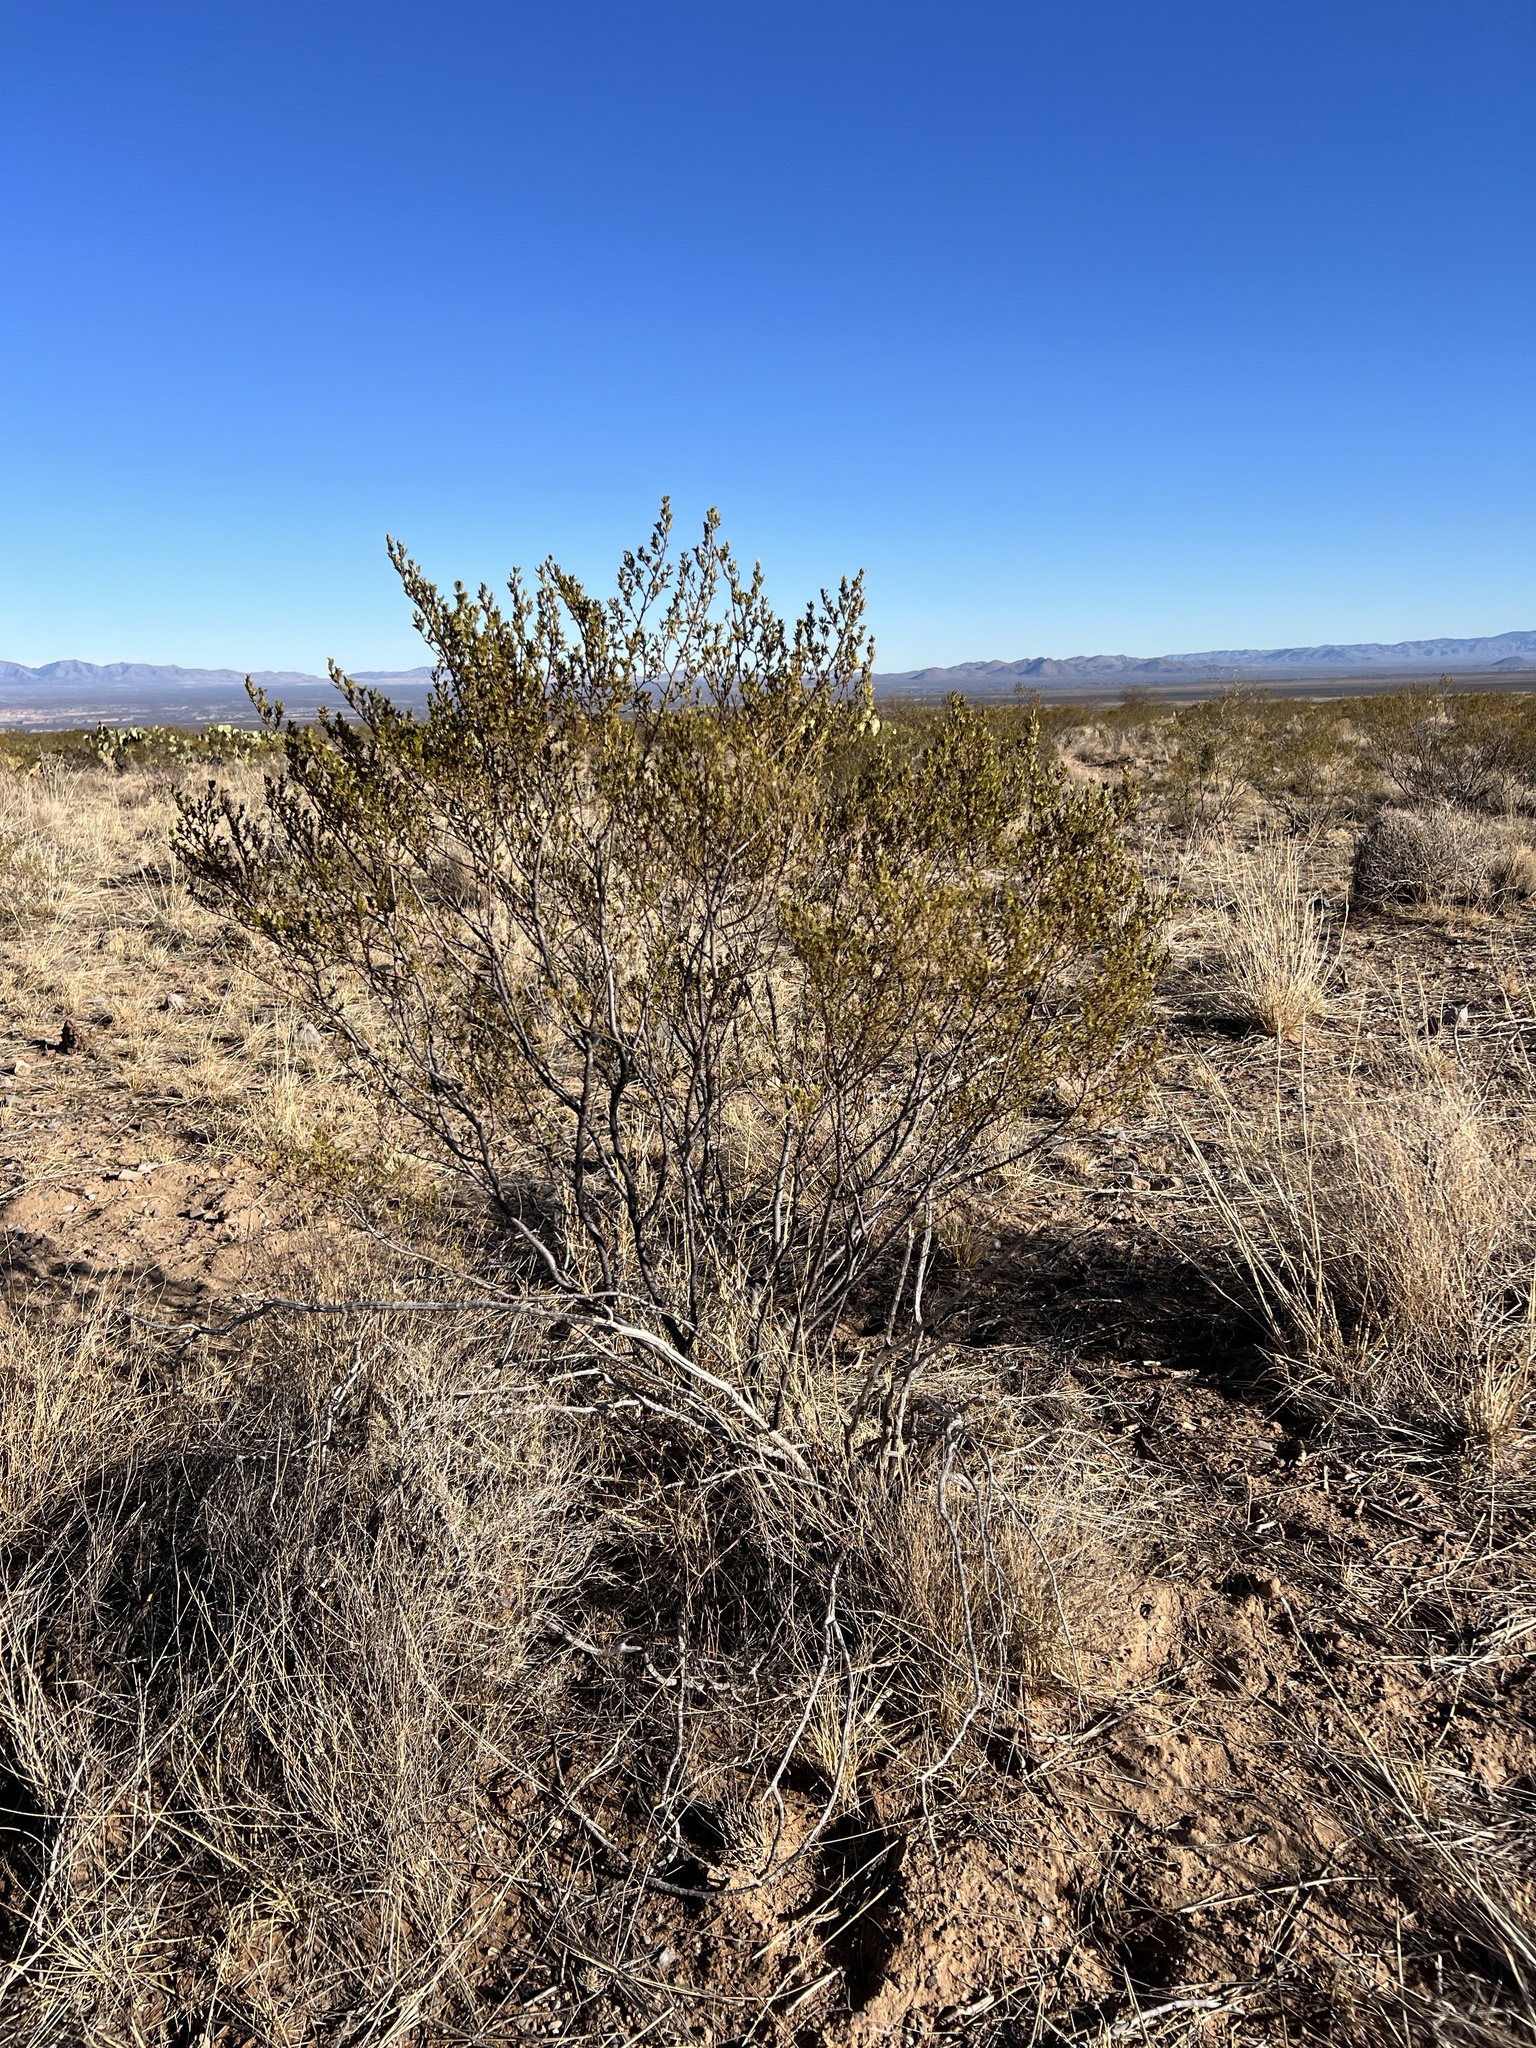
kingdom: Plantae
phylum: Tracheophyta
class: Magnoliopsida
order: Zygophyllales
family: Zygophyllaceae
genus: Larrea
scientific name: Larrea tridentata
